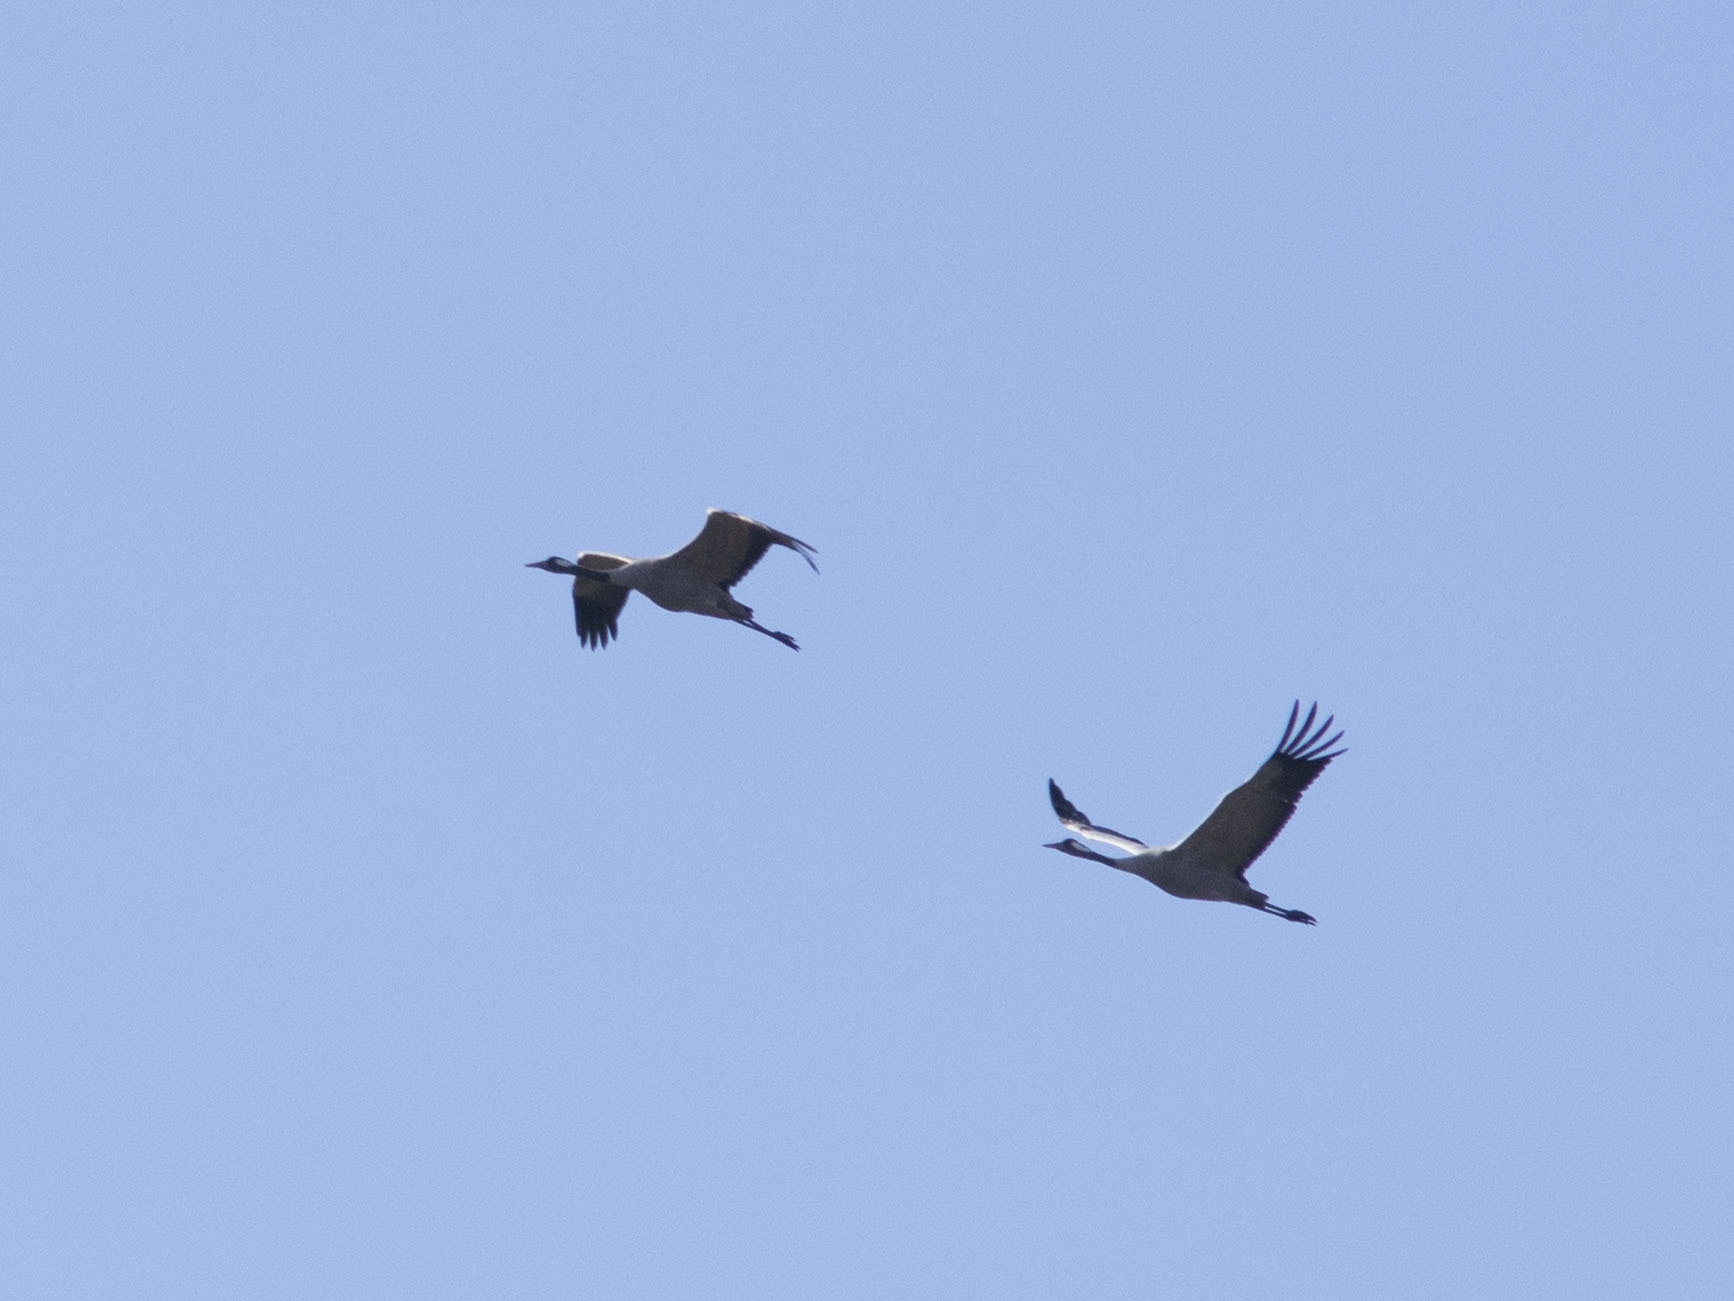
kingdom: Animalia
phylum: Chordata
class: Aves
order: Gruiformes
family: Gruidae
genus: Grus
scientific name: Grus grus
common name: Common crane
